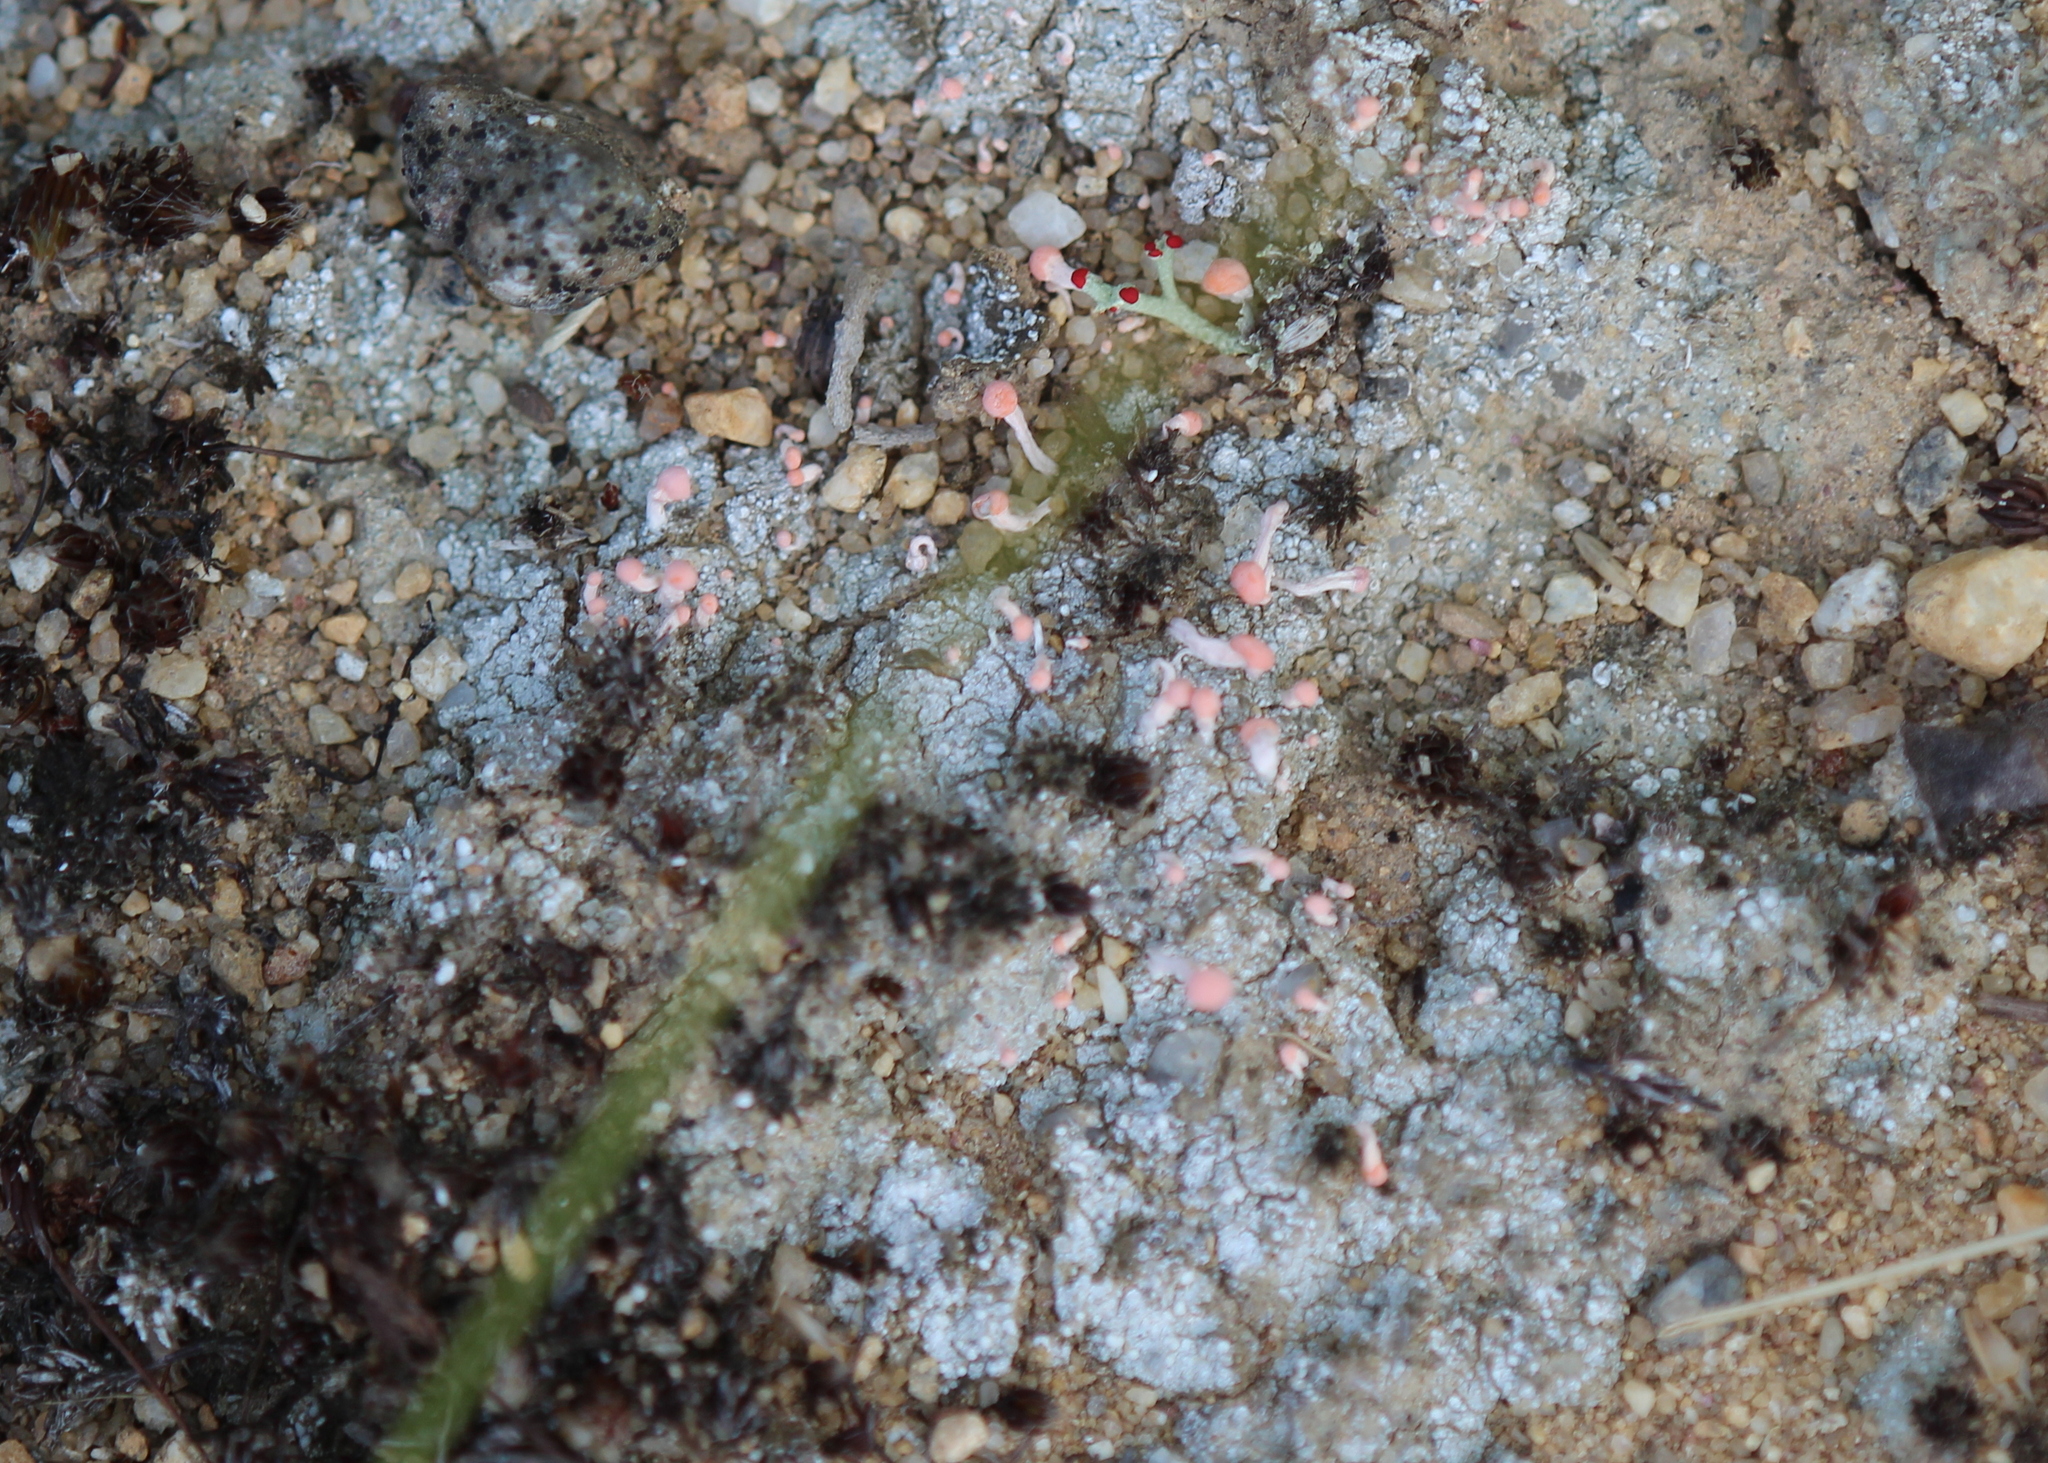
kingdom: Fungi
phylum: Ascomycota
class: Lecanoromycetes
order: Pertusariales
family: Icmadophilaceae
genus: Dibaeis
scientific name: Dibaeis baeomyces
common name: Pink earth lichen
